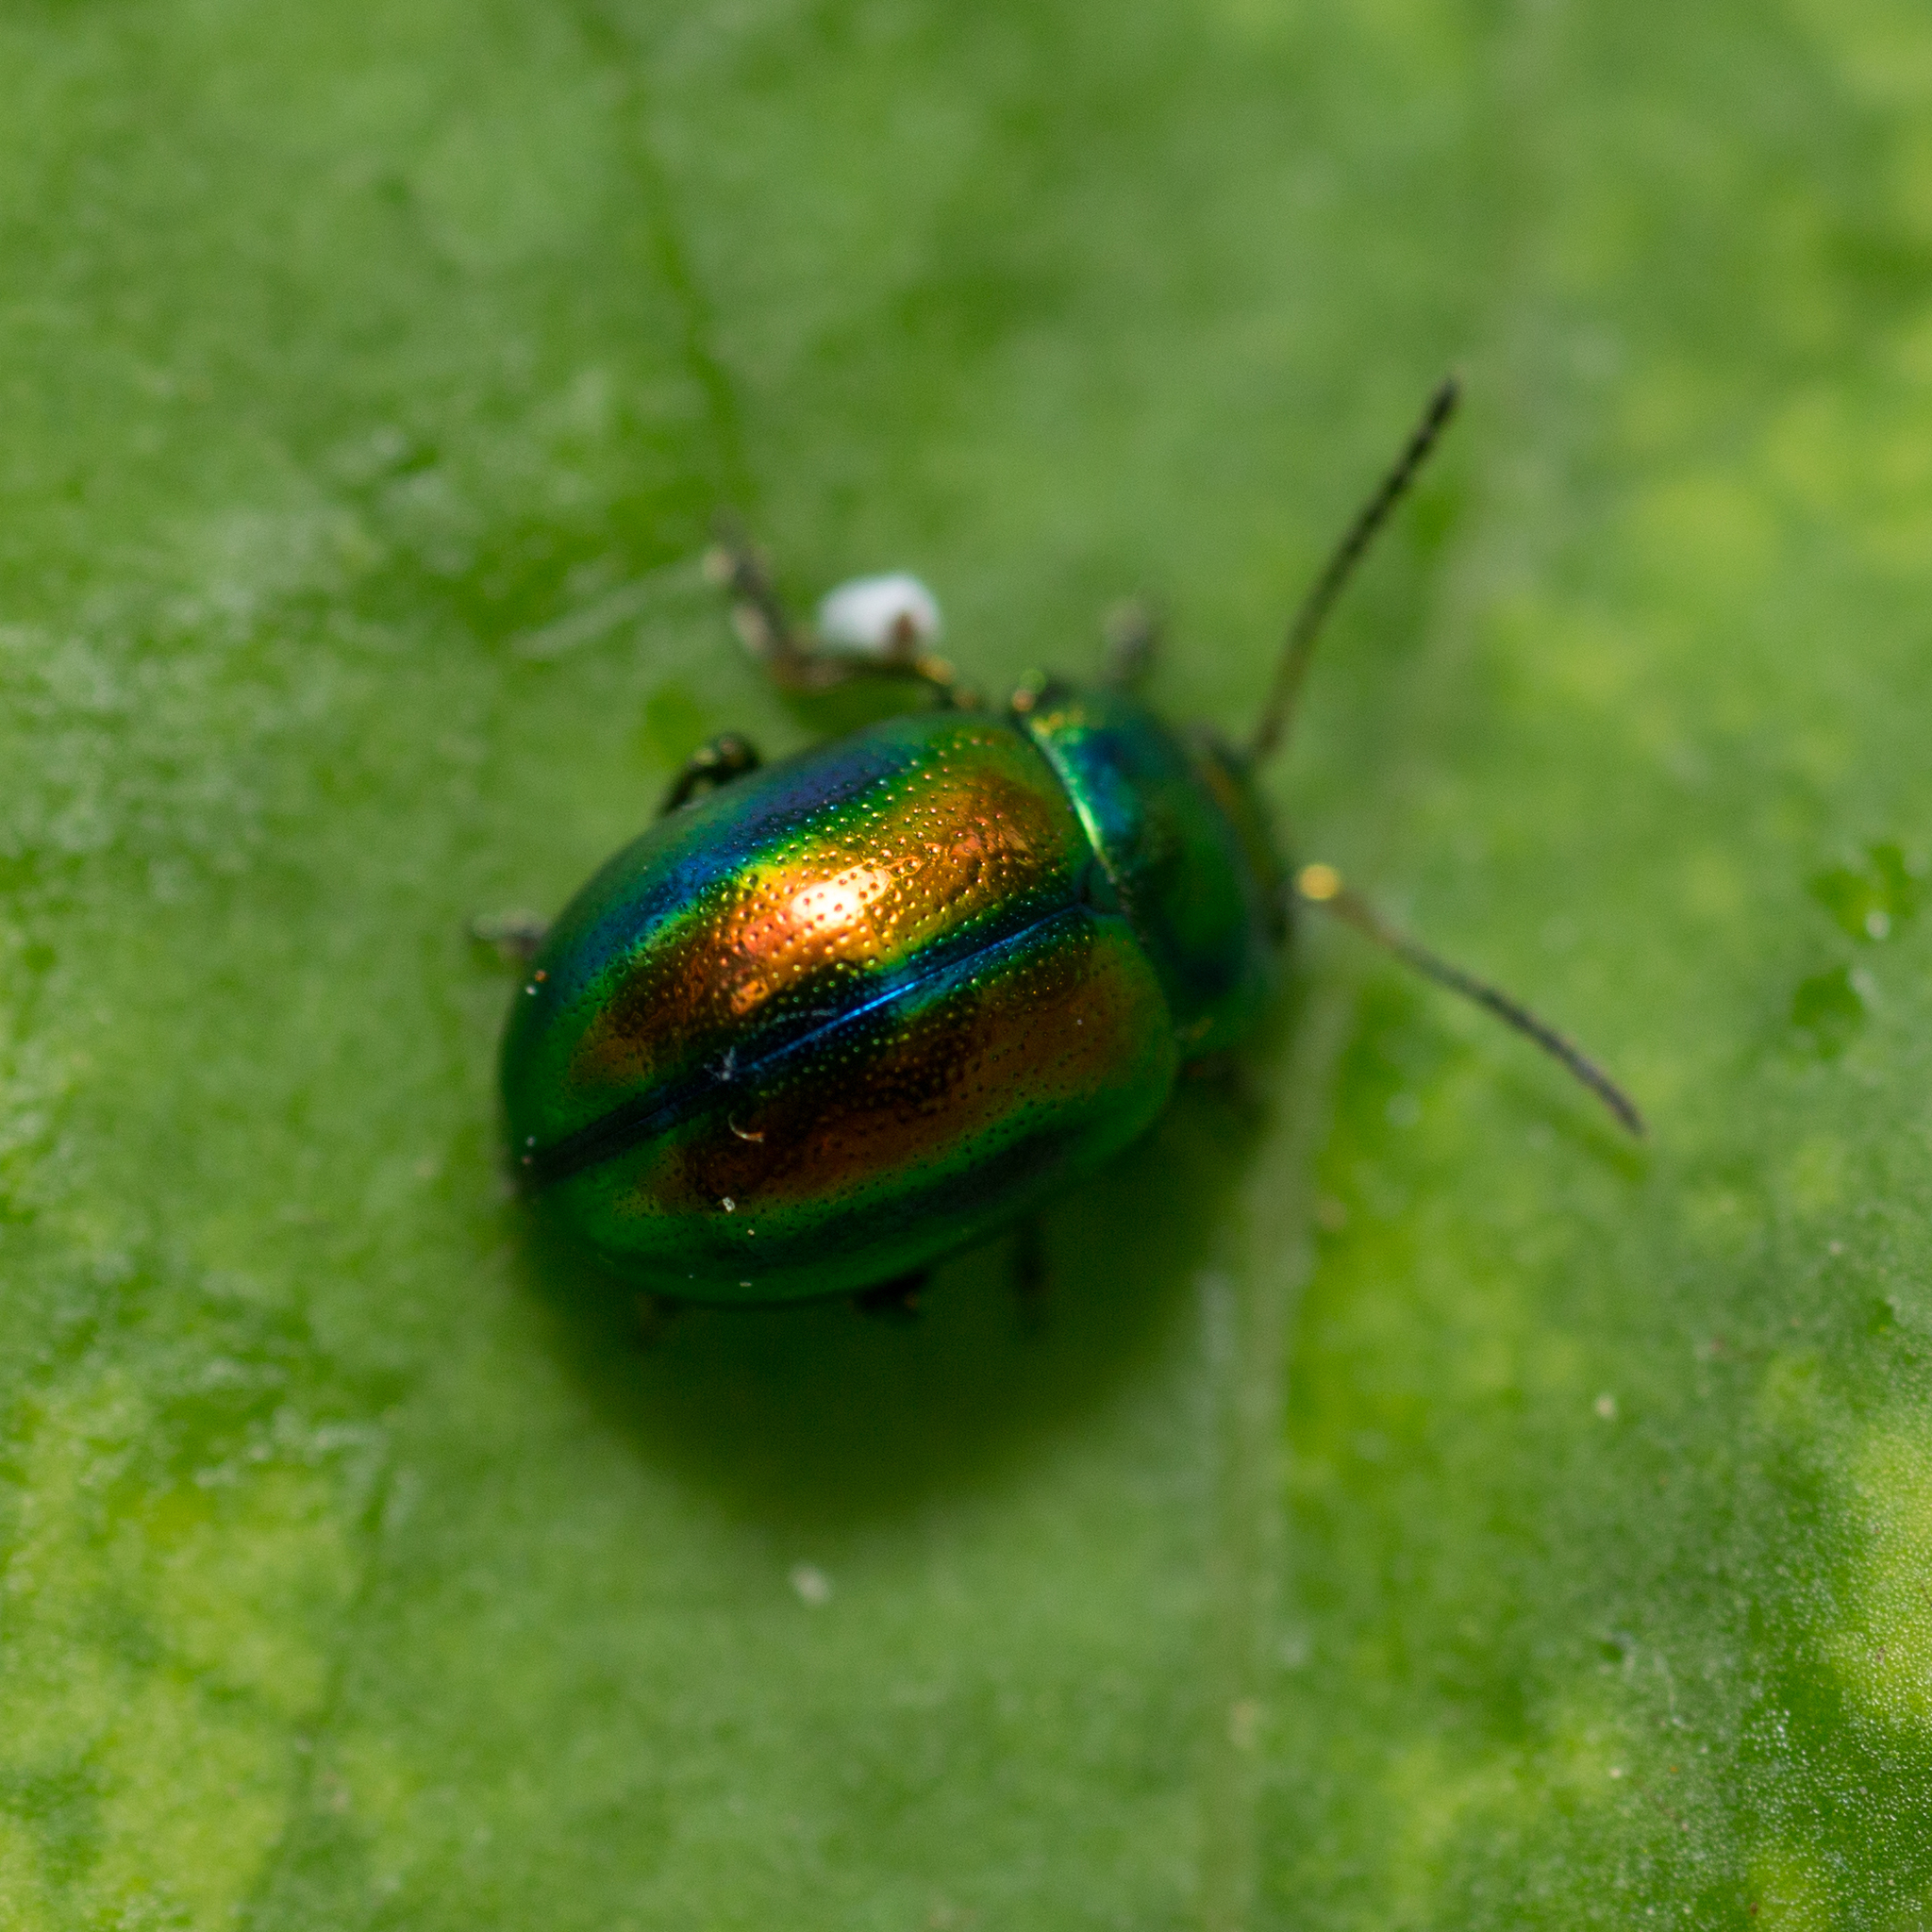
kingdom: Animalia
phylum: Arthropoda
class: Insecta
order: Coleoptera
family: Chrysomelidae
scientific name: Chrysomelidae
